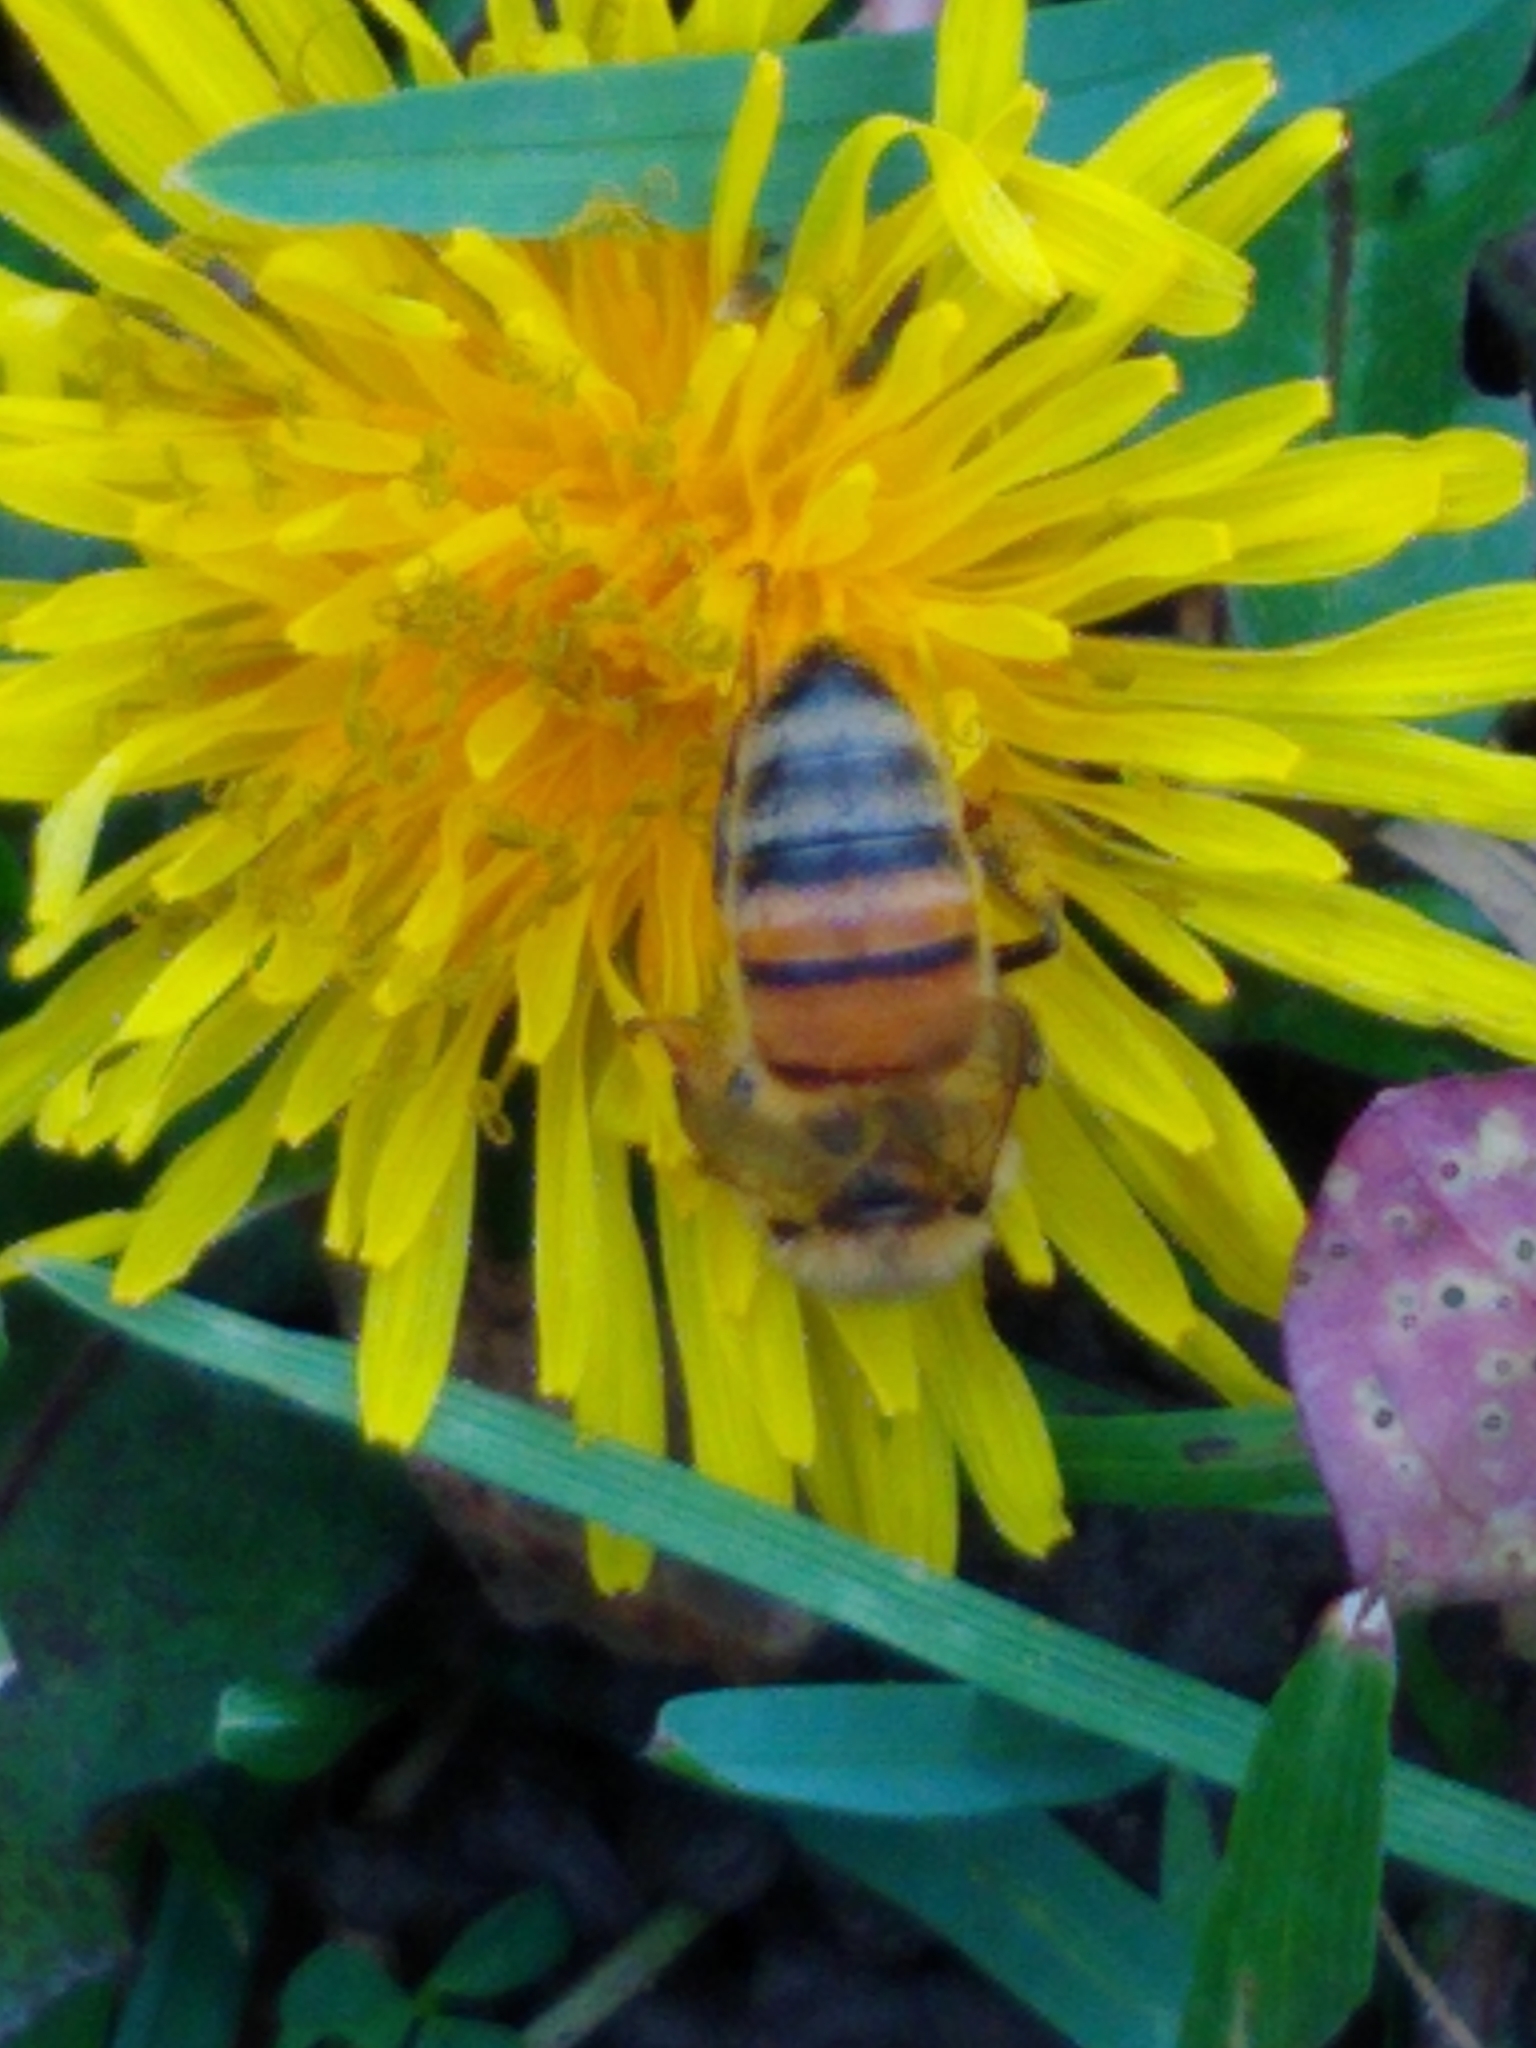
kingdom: Animalia
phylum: Arthropoda
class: Insecta
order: Hymenoptera
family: Apidae
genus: Apis
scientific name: Apis mellifera
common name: Honey bee
